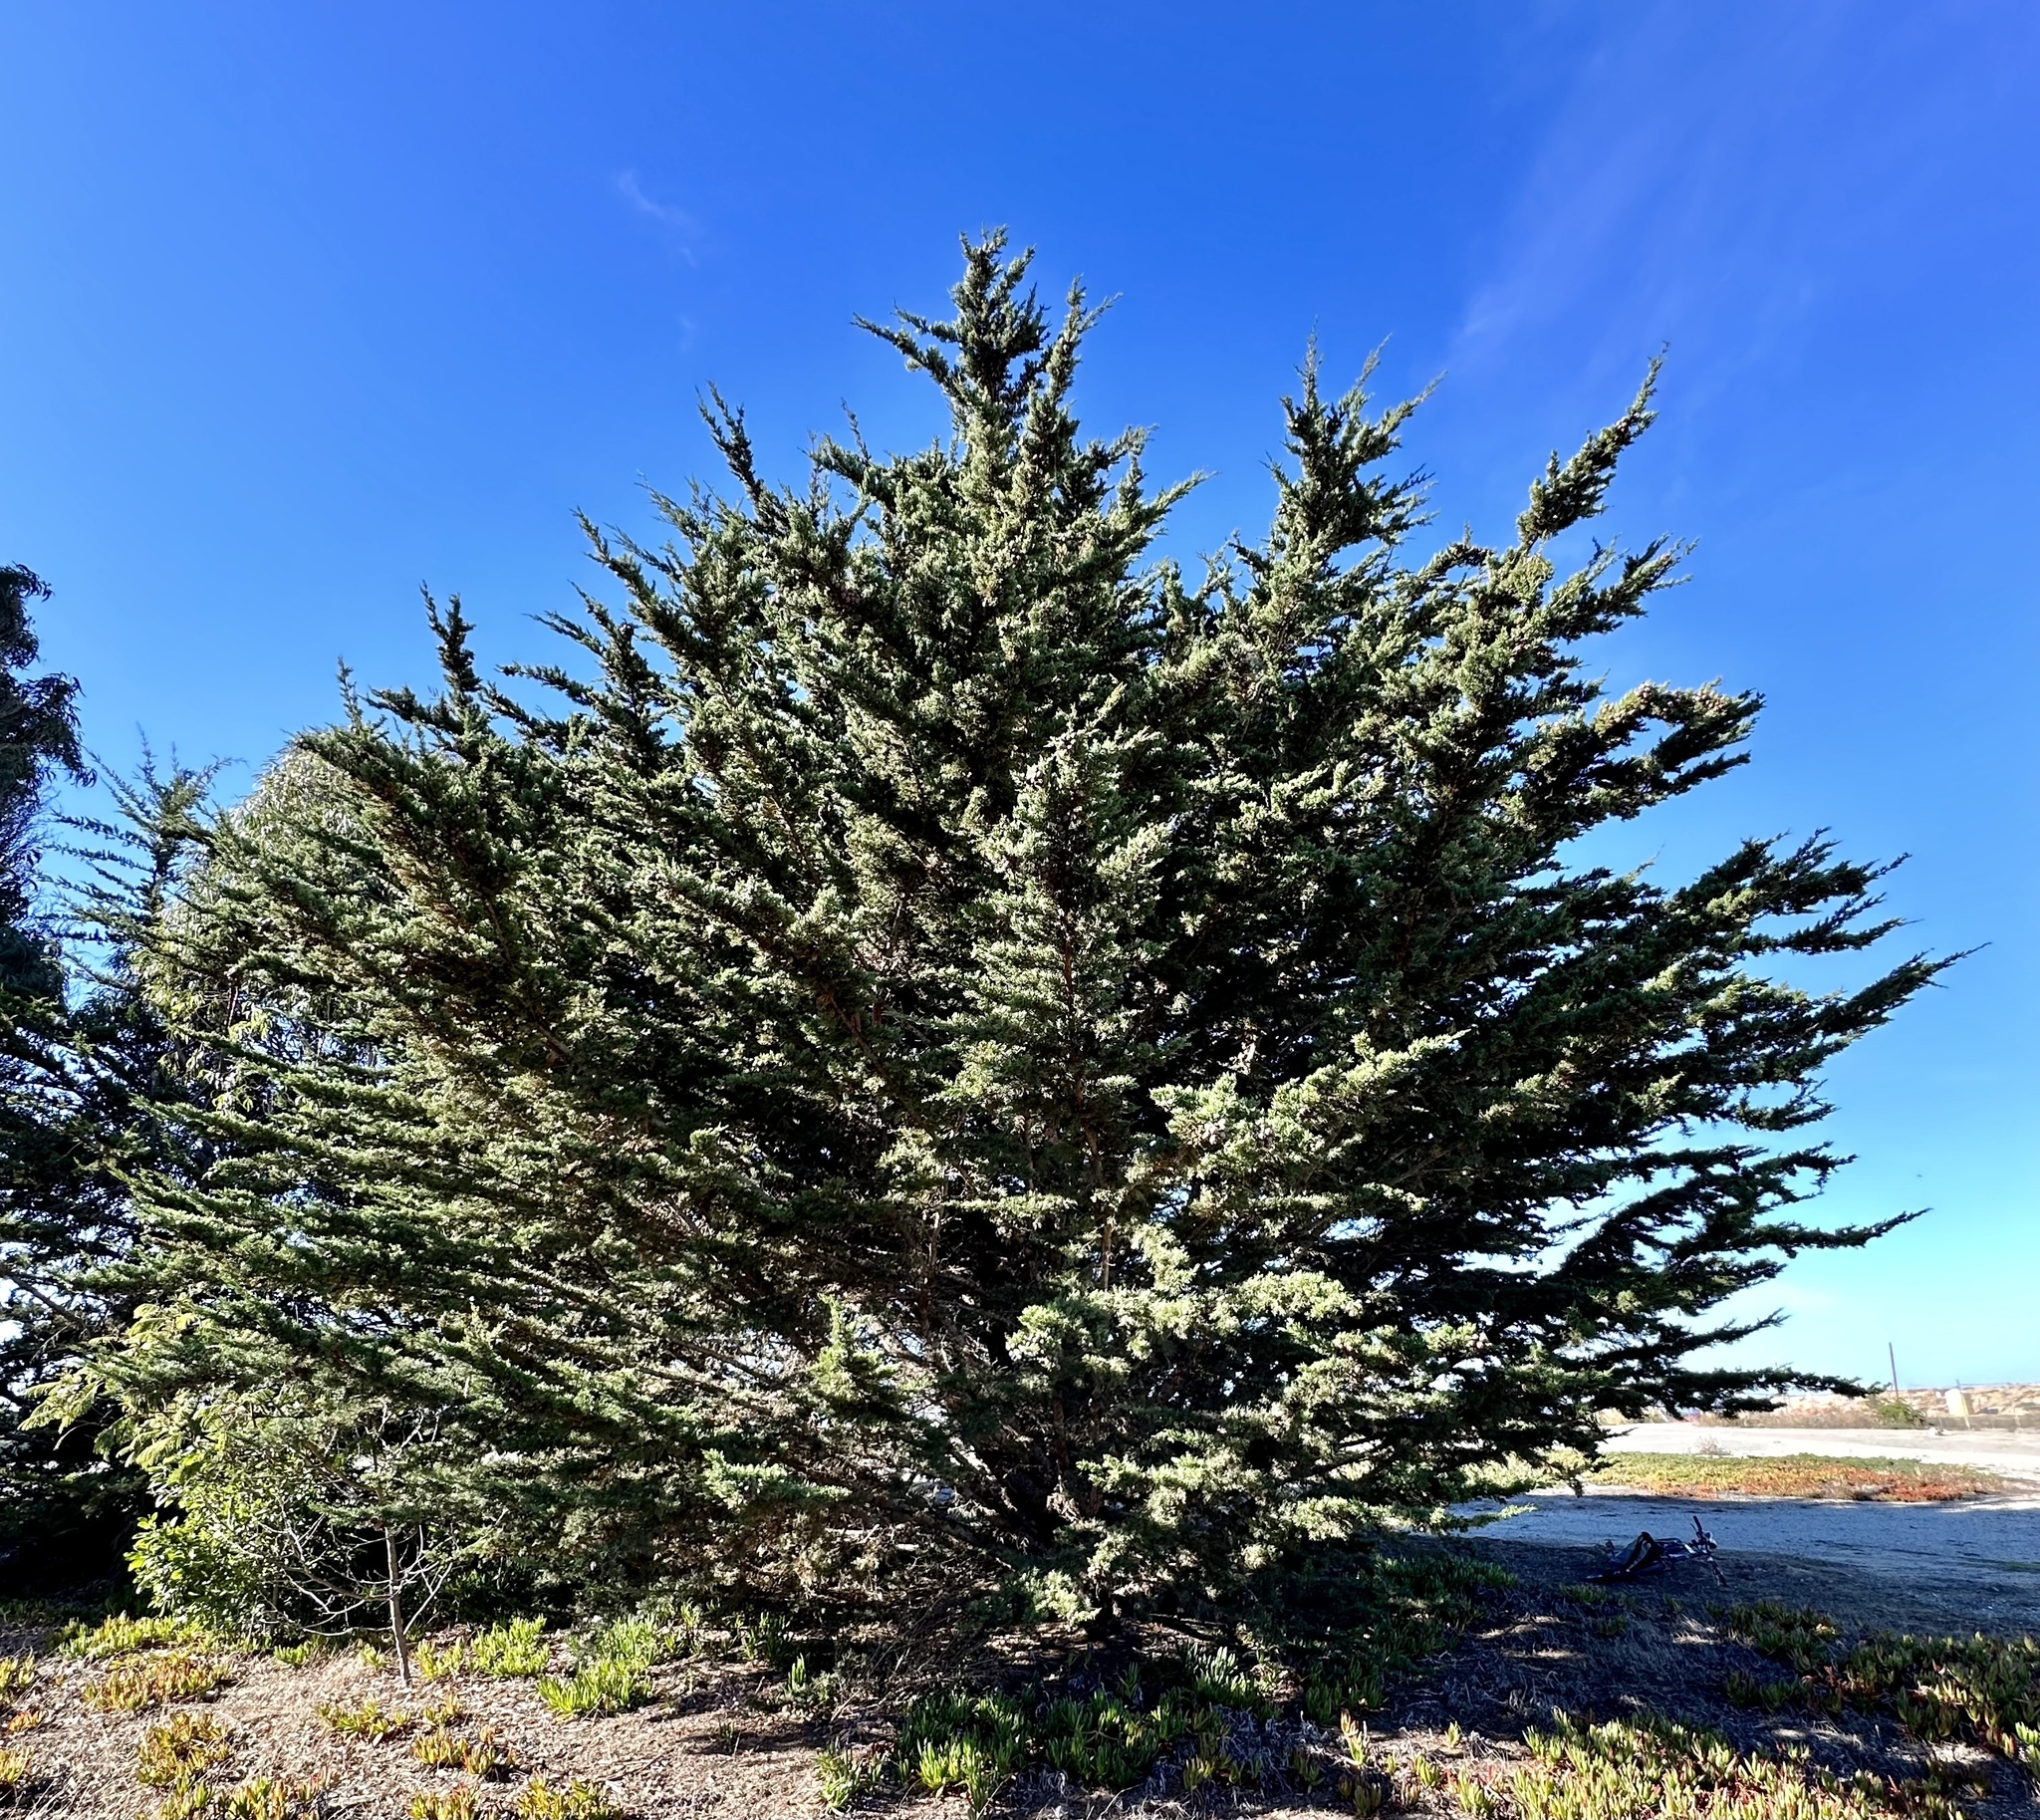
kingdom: Plantae
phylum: Tracheophyta
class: Pinopsida
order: Pinales
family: Cupressaceae
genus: Cupressus
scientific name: Cupressus macrocarpa
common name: Monterey cypress
